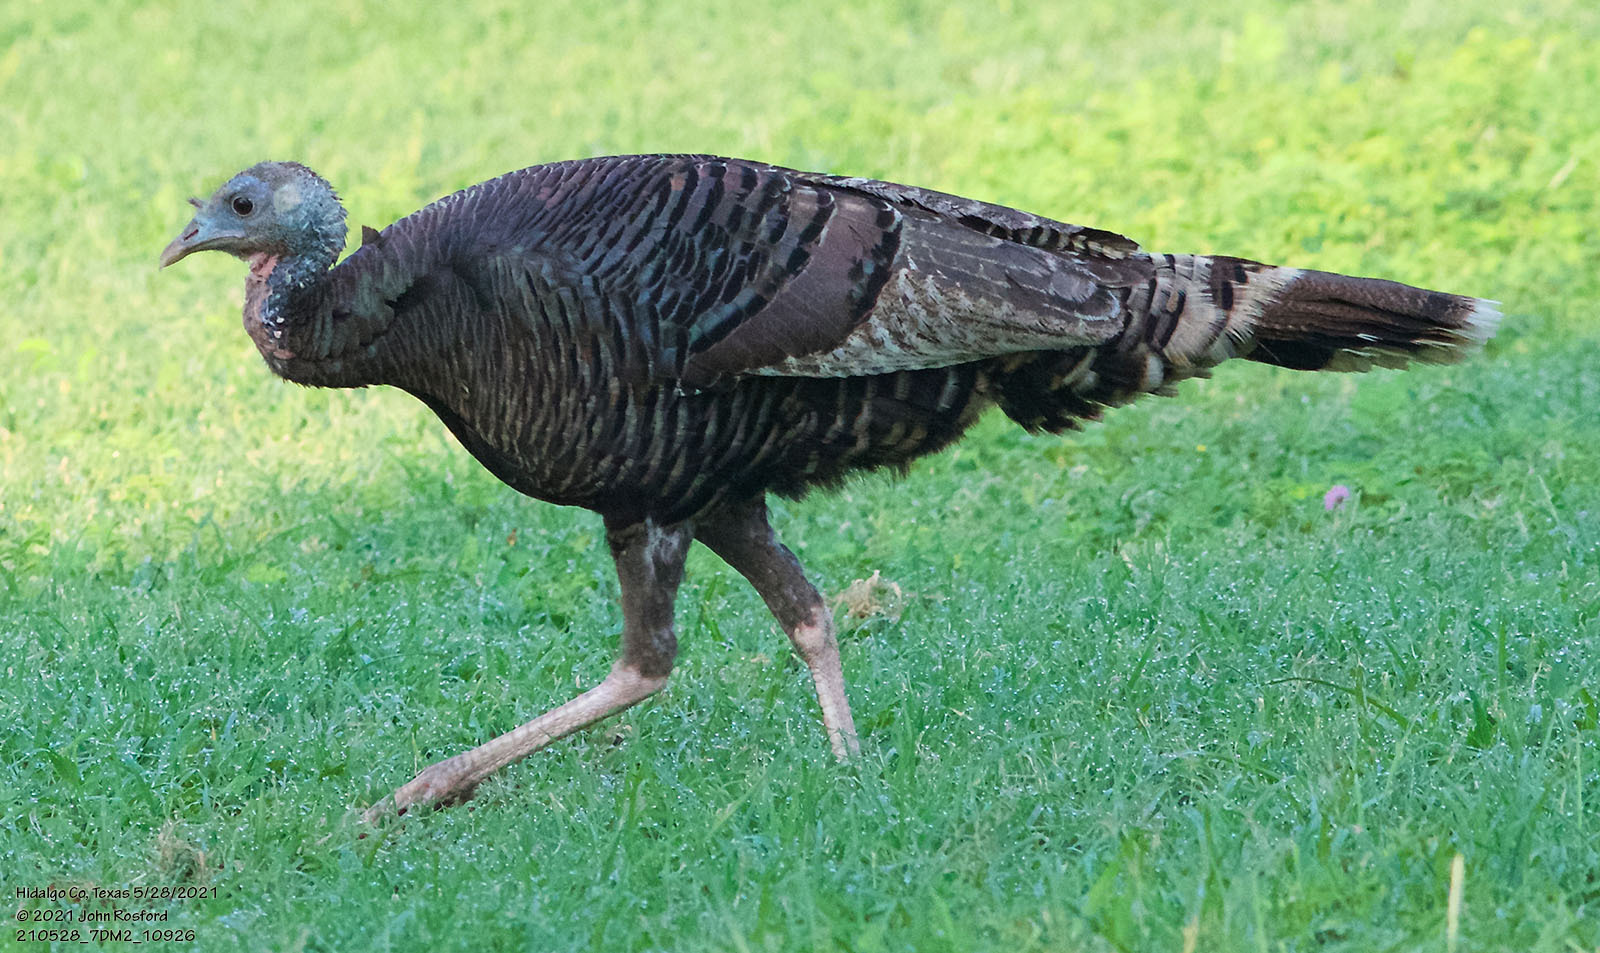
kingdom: Animalia
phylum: Chordata
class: Aves
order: Galliformes
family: Phasianidae
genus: Meleagris
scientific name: Meleagris gallopavo
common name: Wild turkey
